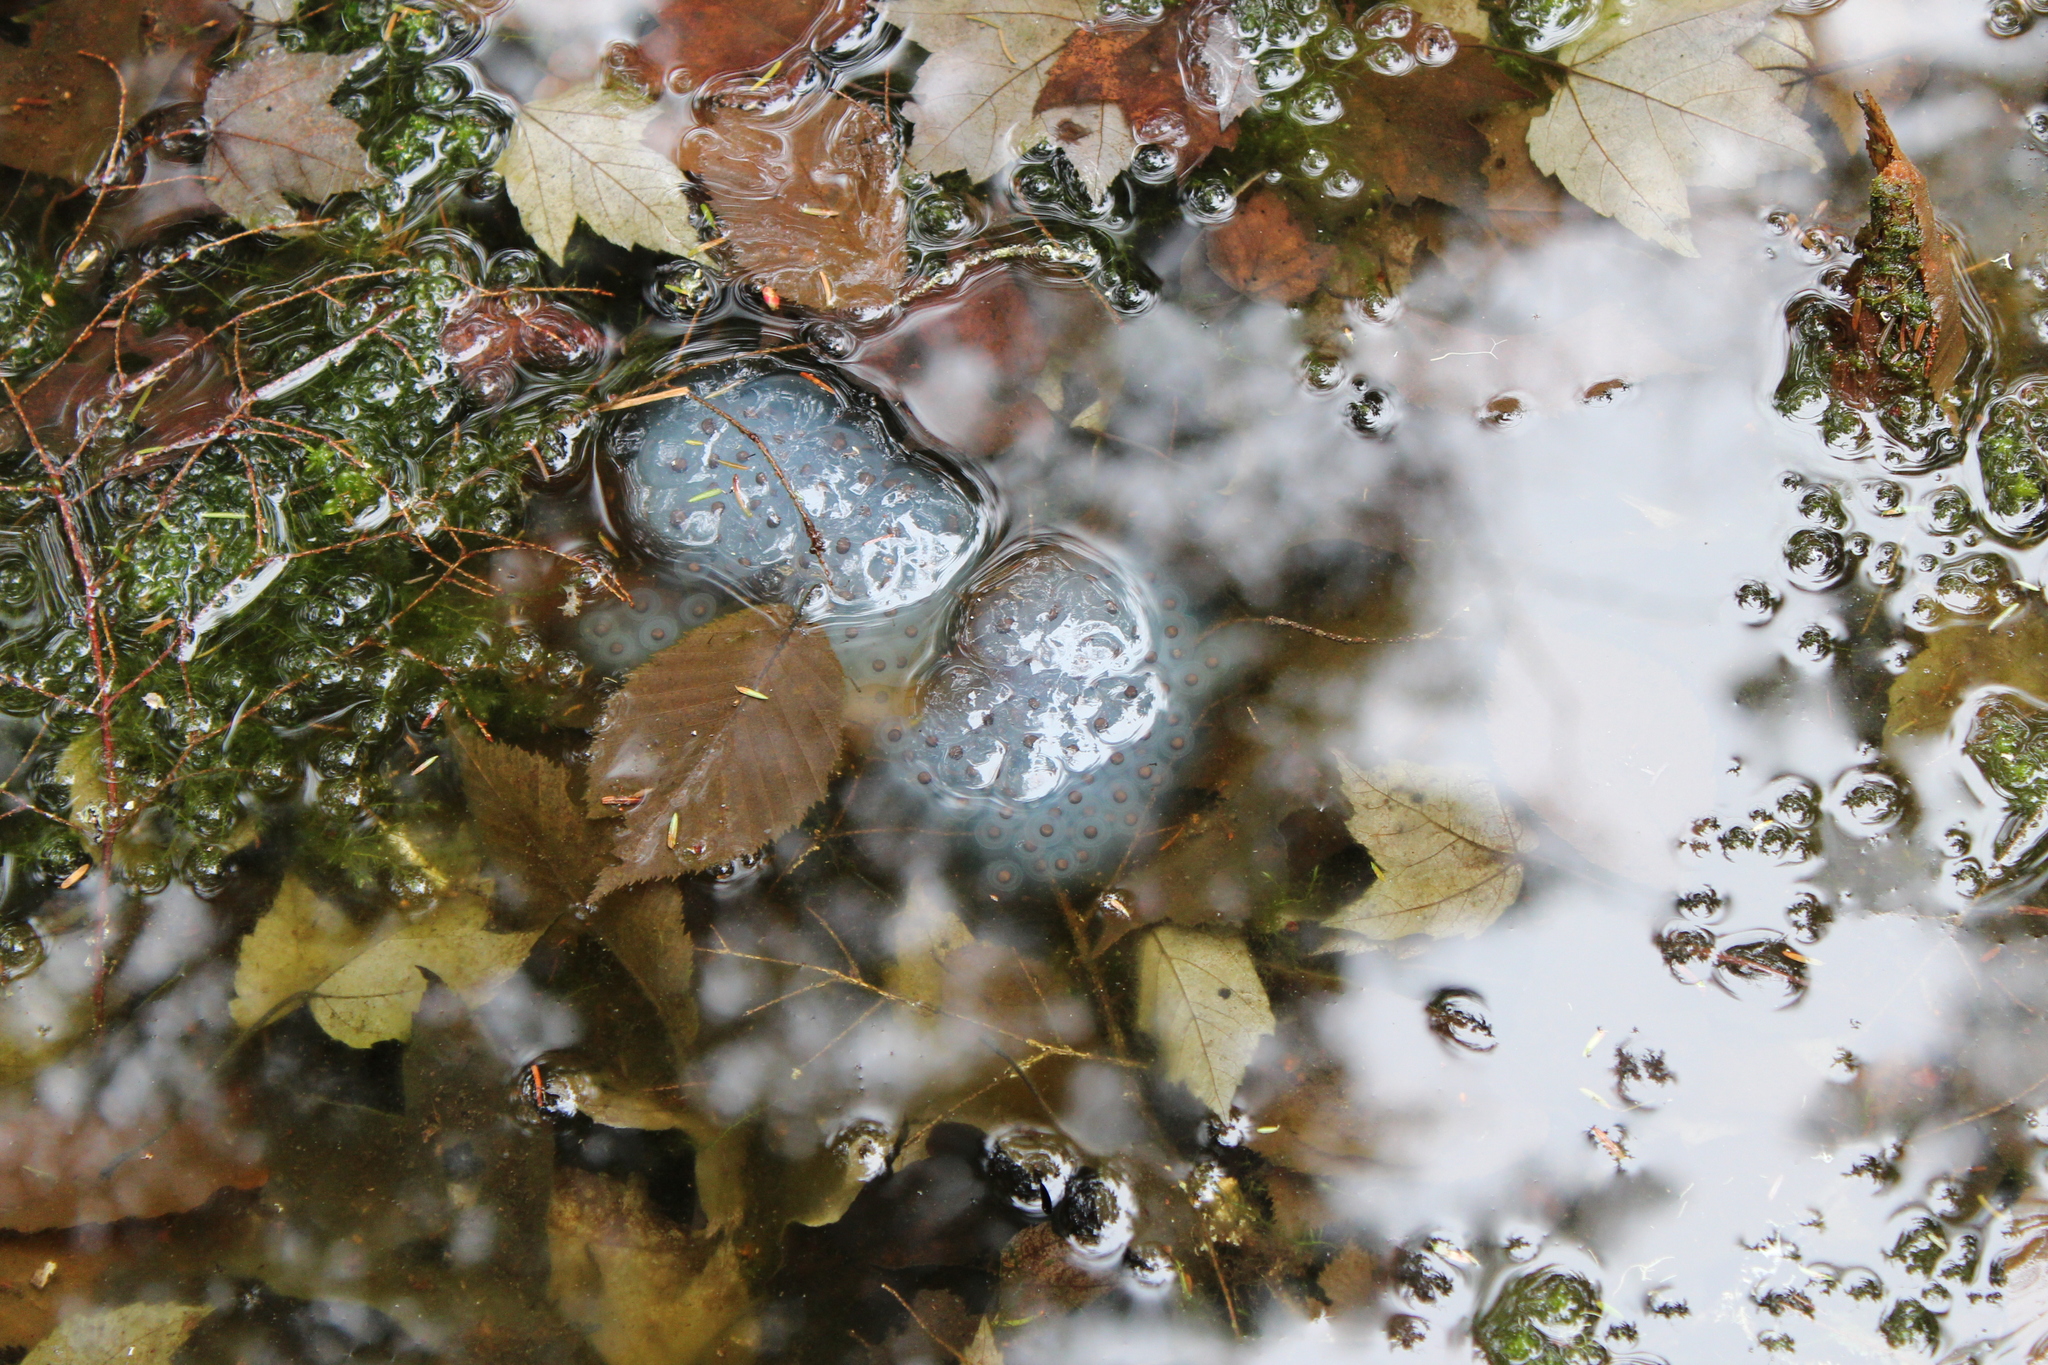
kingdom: Animalia
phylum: Chordata
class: Amphibia
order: Caudata
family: Ambystomatidae
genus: Ambystoma
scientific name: Ambystoma maculatum
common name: Spotted salamander
